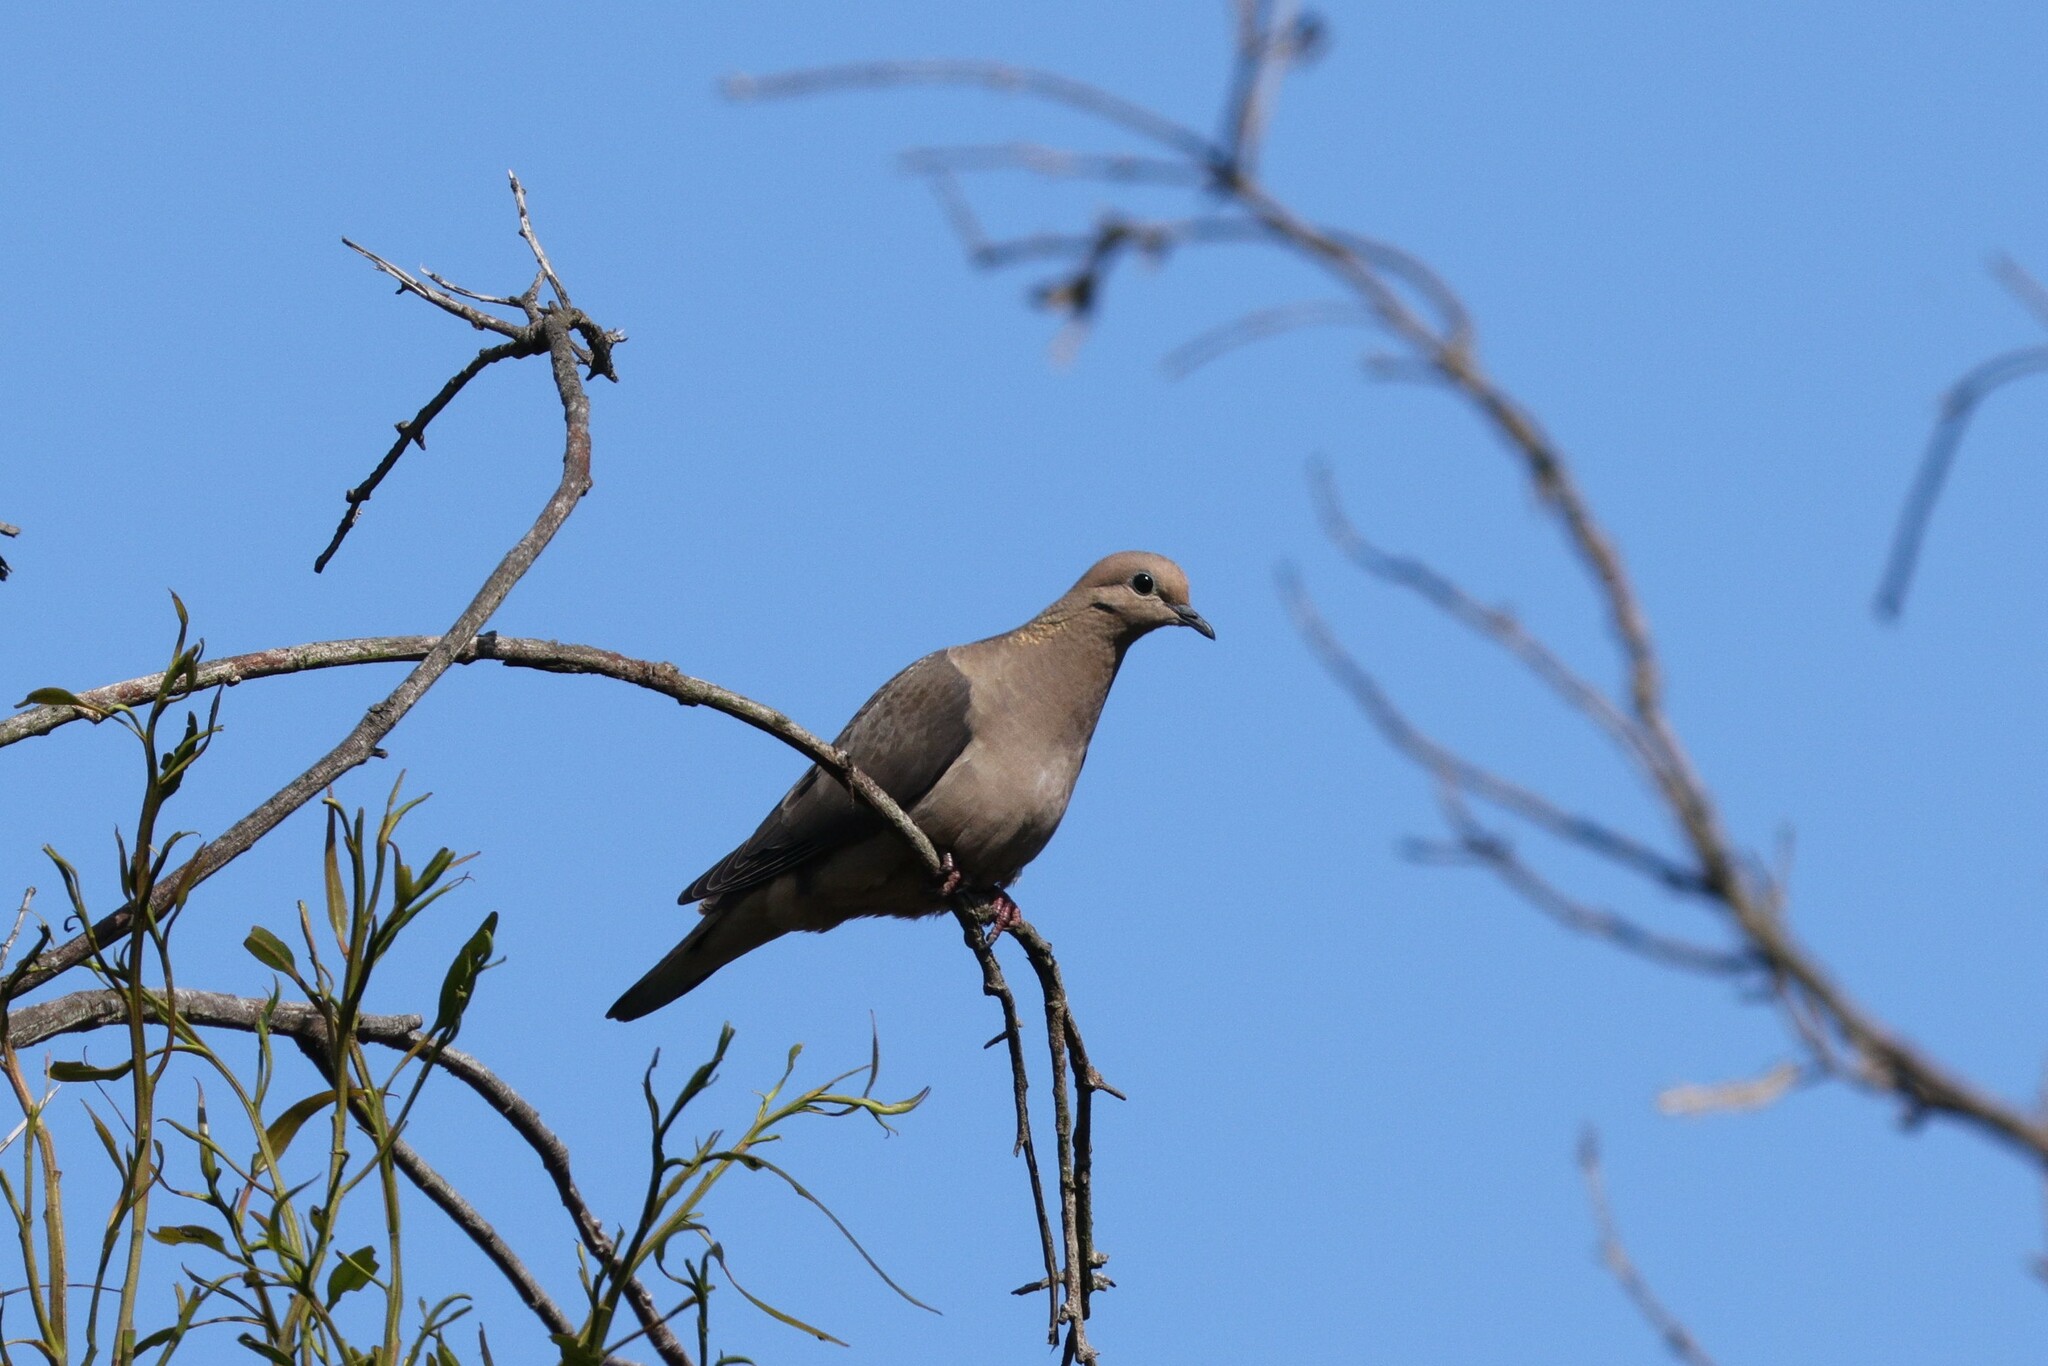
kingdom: Animalia
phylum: Chordata
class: Aves
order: Columbiformes
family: Columbidae
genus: Zenaida
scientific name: Zenaida auriculata
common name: Eared dove
